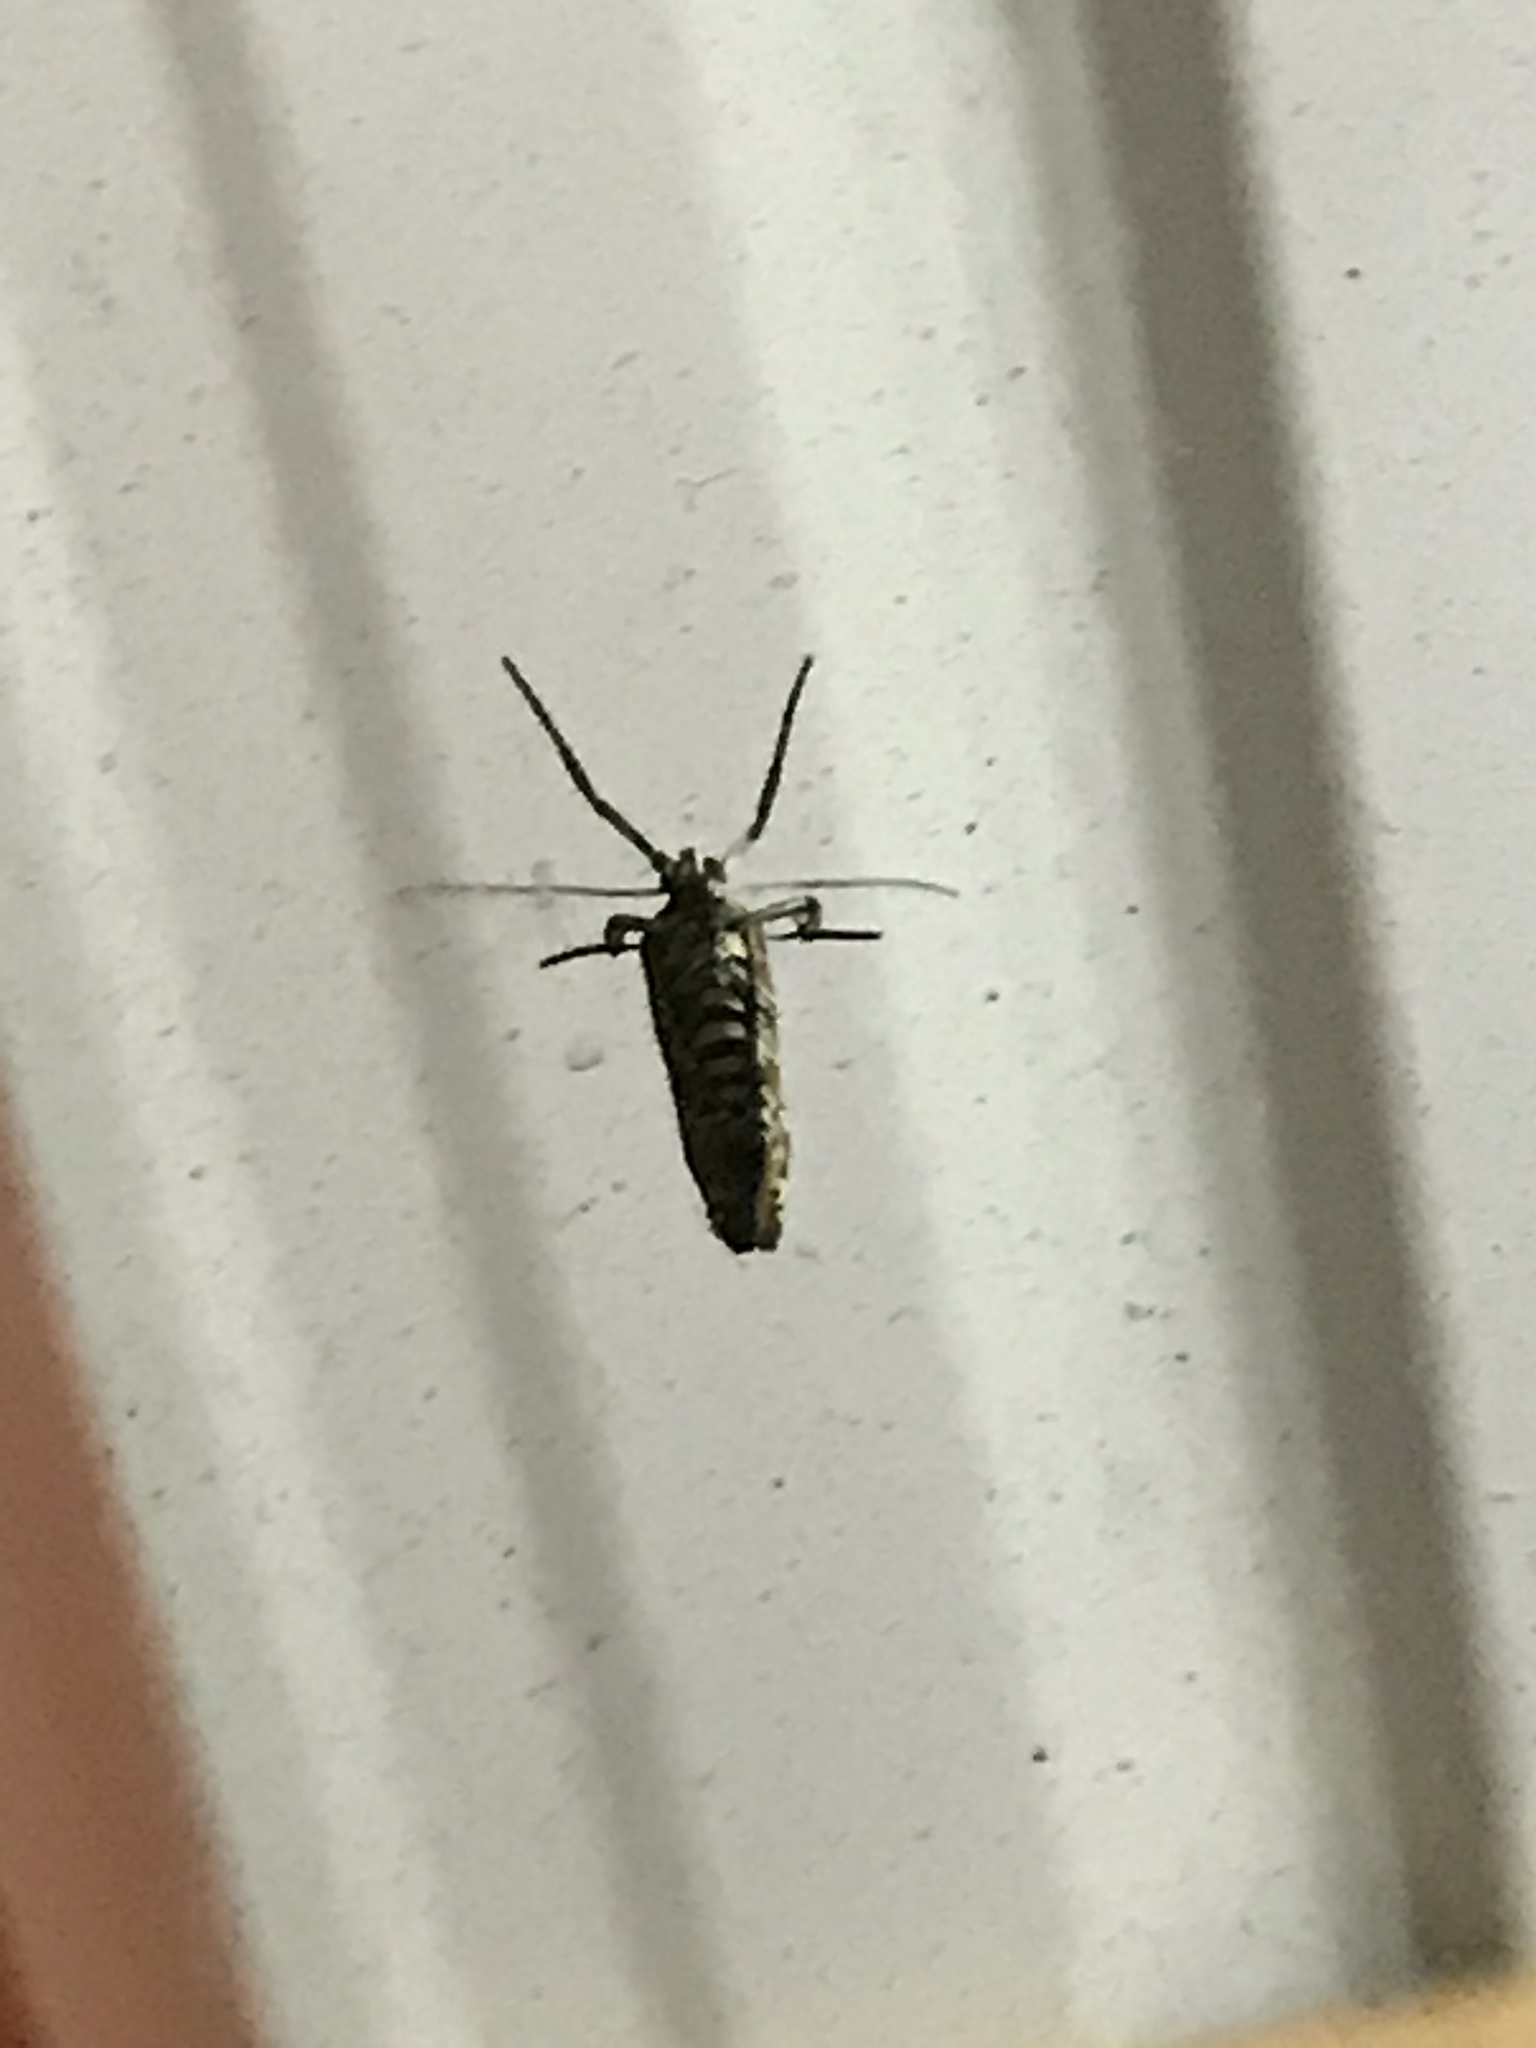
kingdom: Animalia
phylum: Arthropoda
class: Insecta
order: Lepidoptera
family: Attevidae
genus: Atteva
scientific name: Atteva punctella
